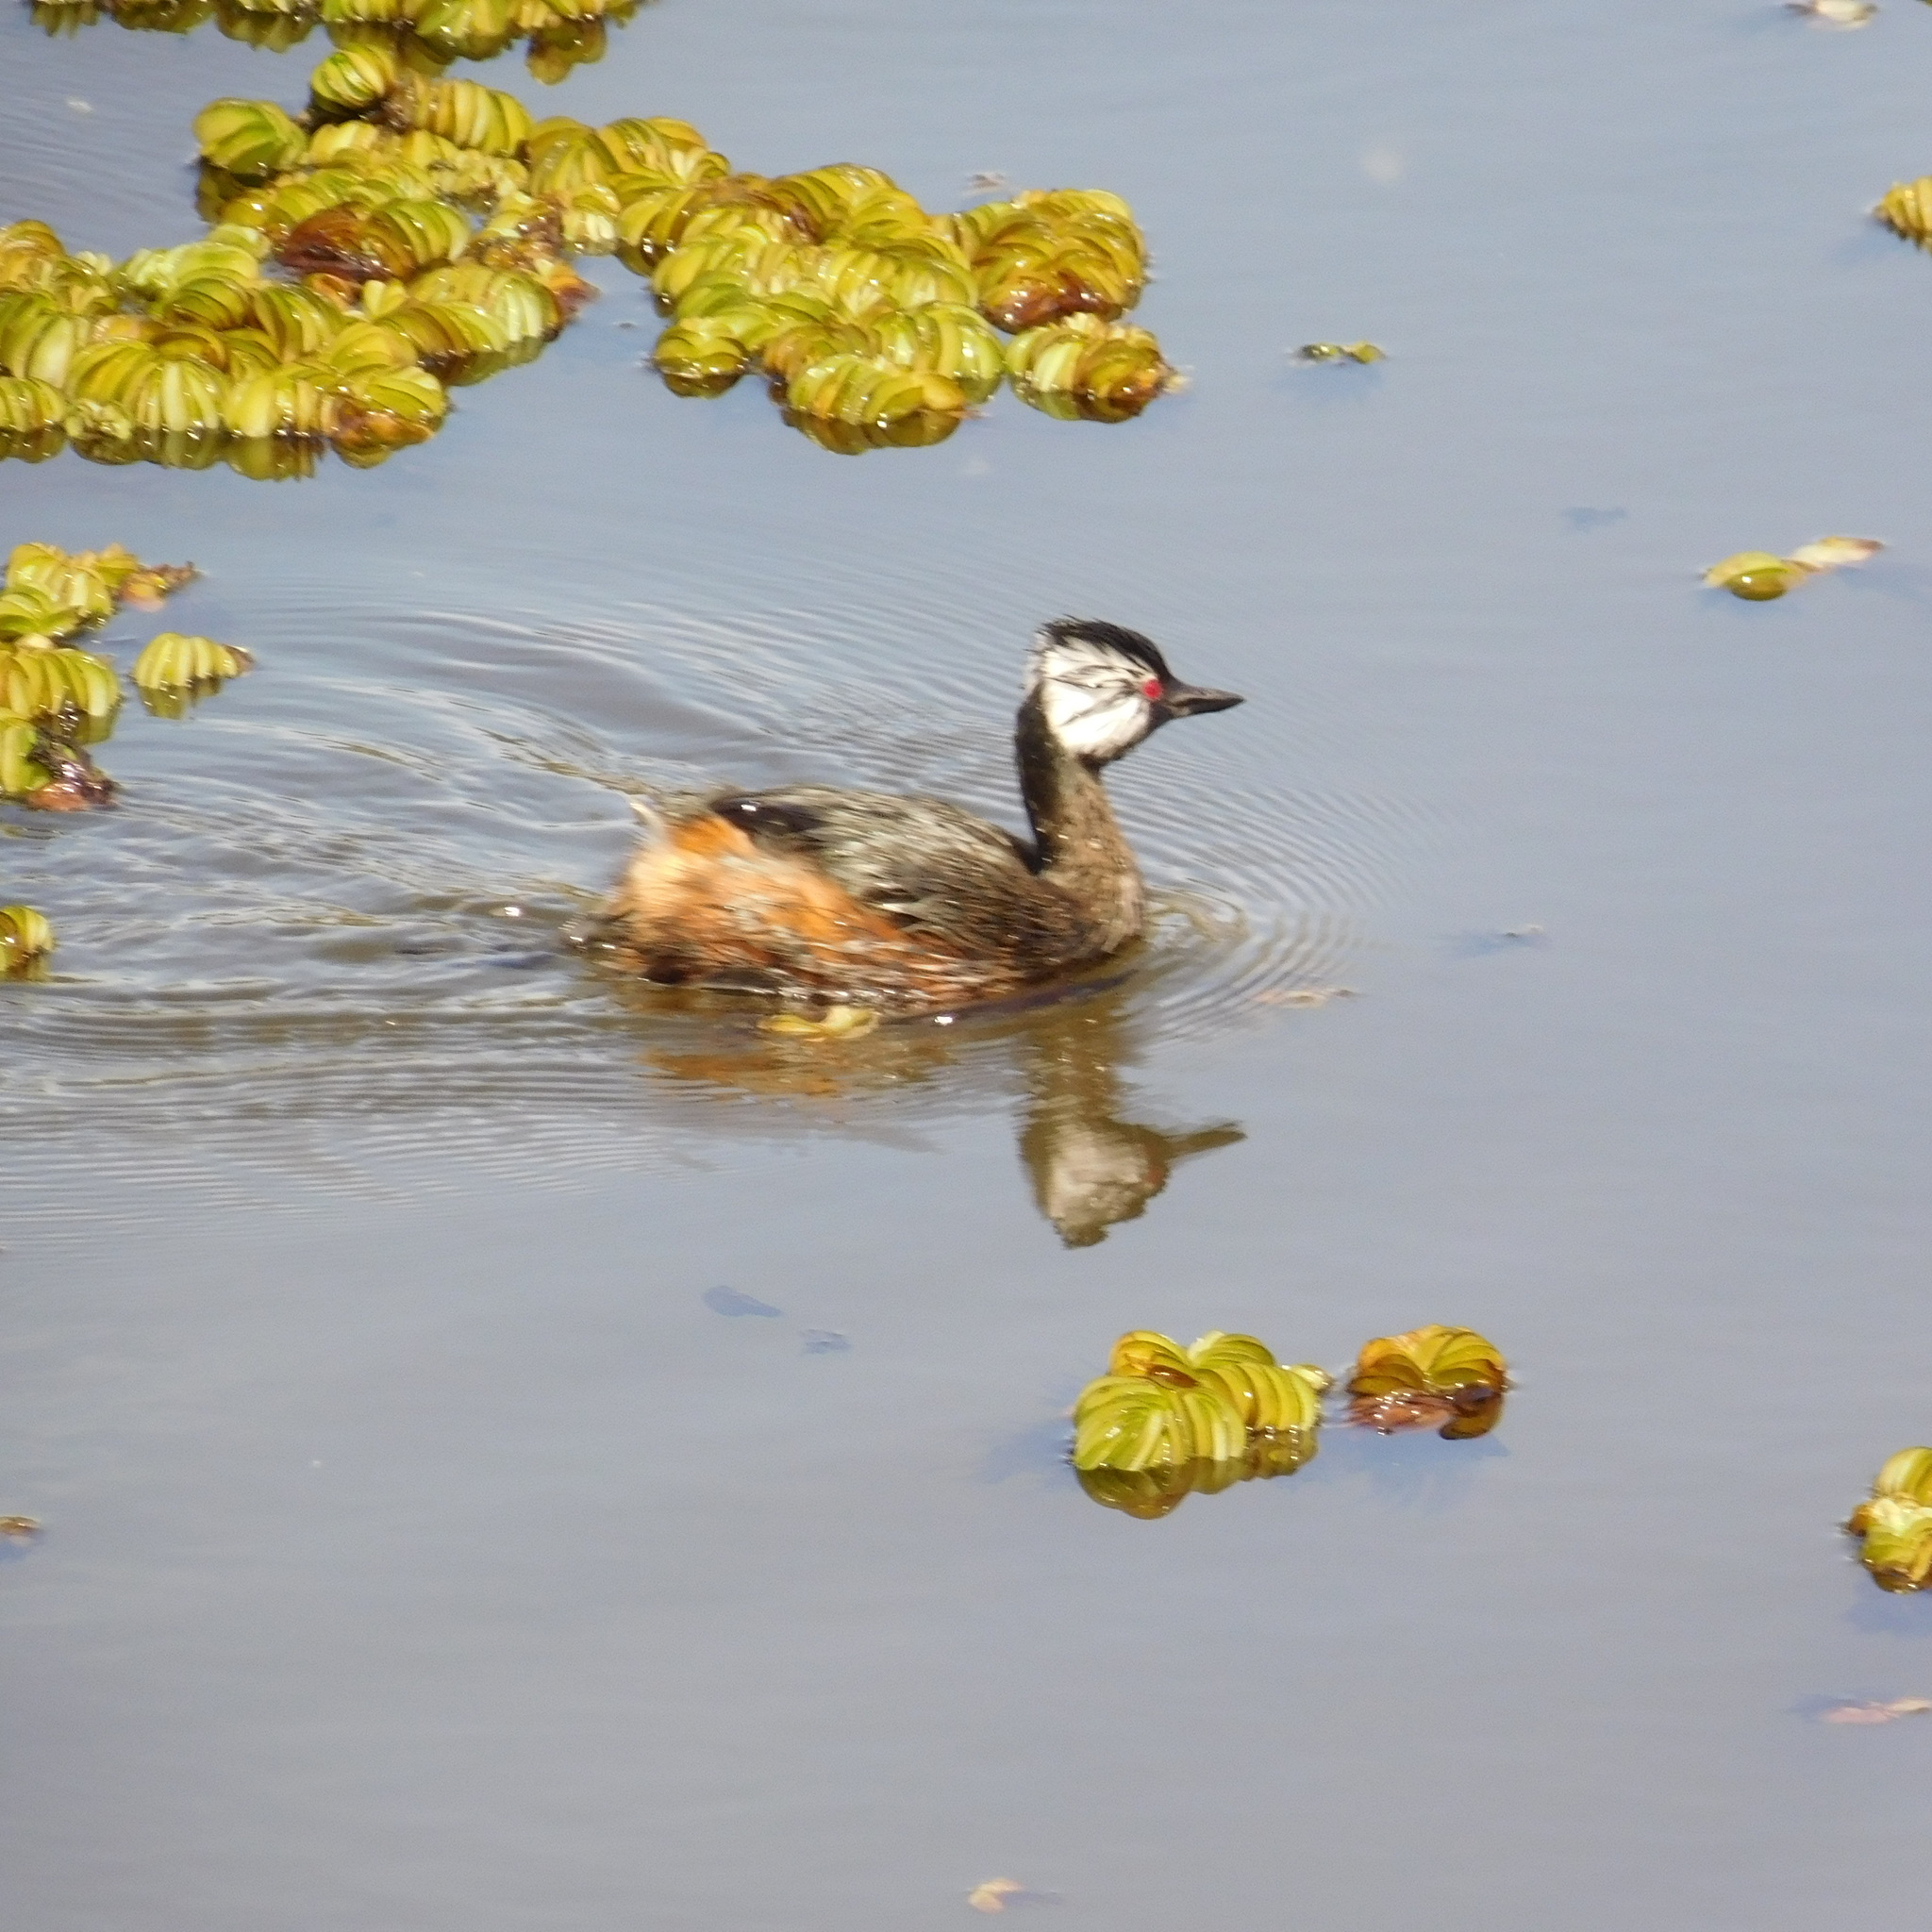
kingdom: Animalia
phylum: Chordata
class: Aves
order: Podicipediformes
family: Podicipedidae
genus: Rollandia
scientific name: Rollandia rolland
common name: White-tufted grebe
